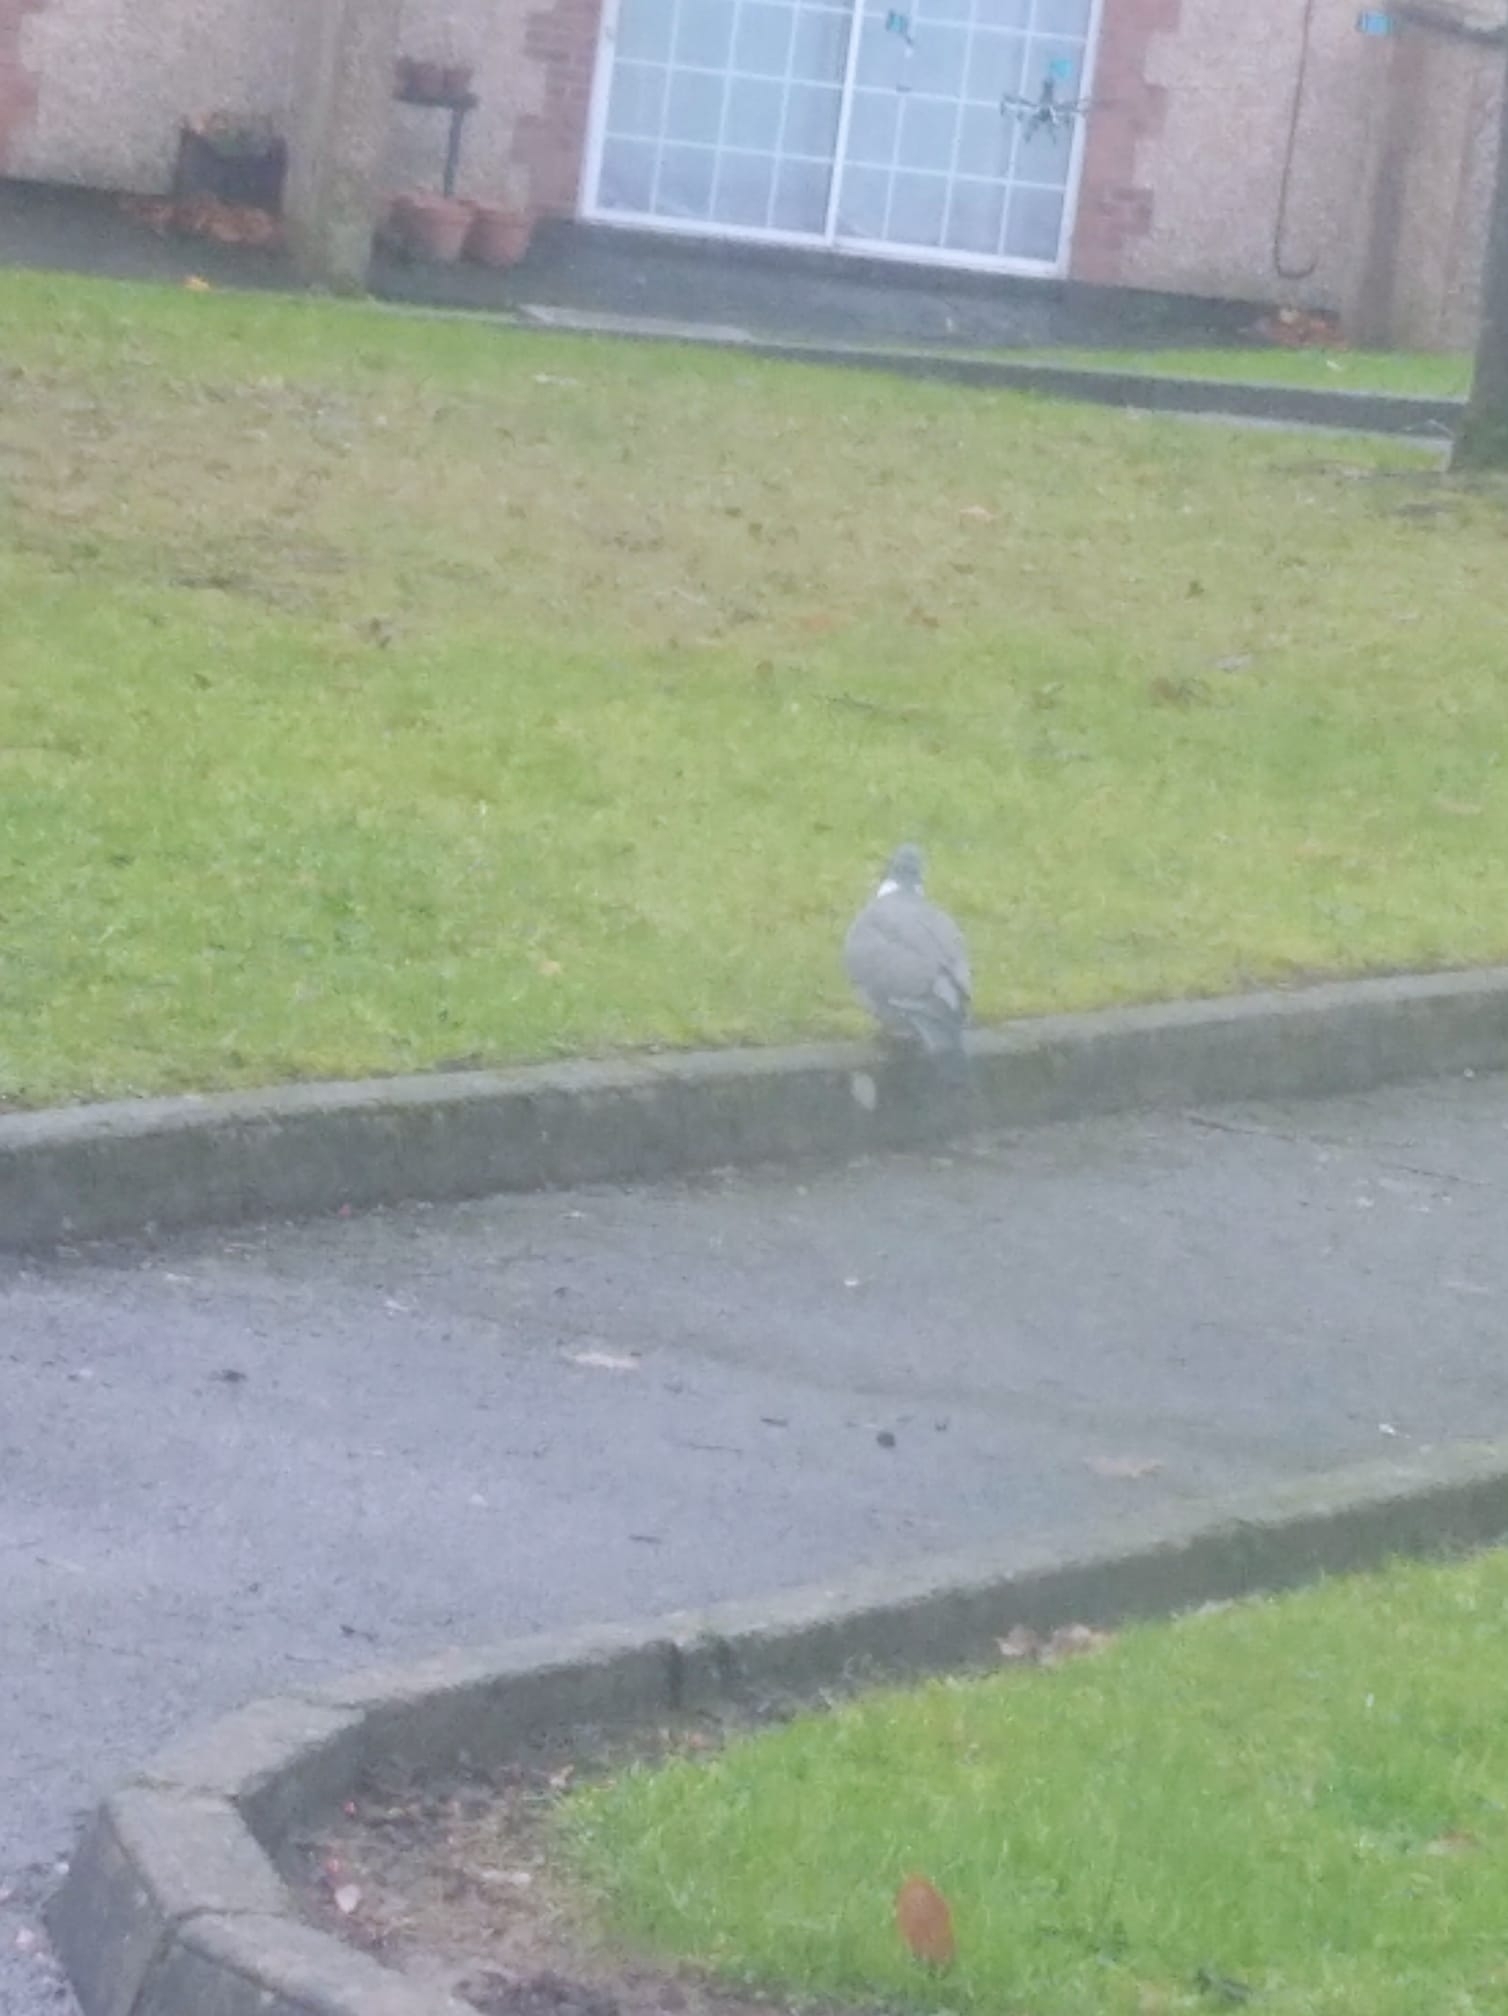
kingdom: Animalia
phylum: Chordata
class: Aves
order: Columbiformes
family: Columbidae
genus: Columba
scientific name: Columba palumbus
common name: Common wood pigeon
